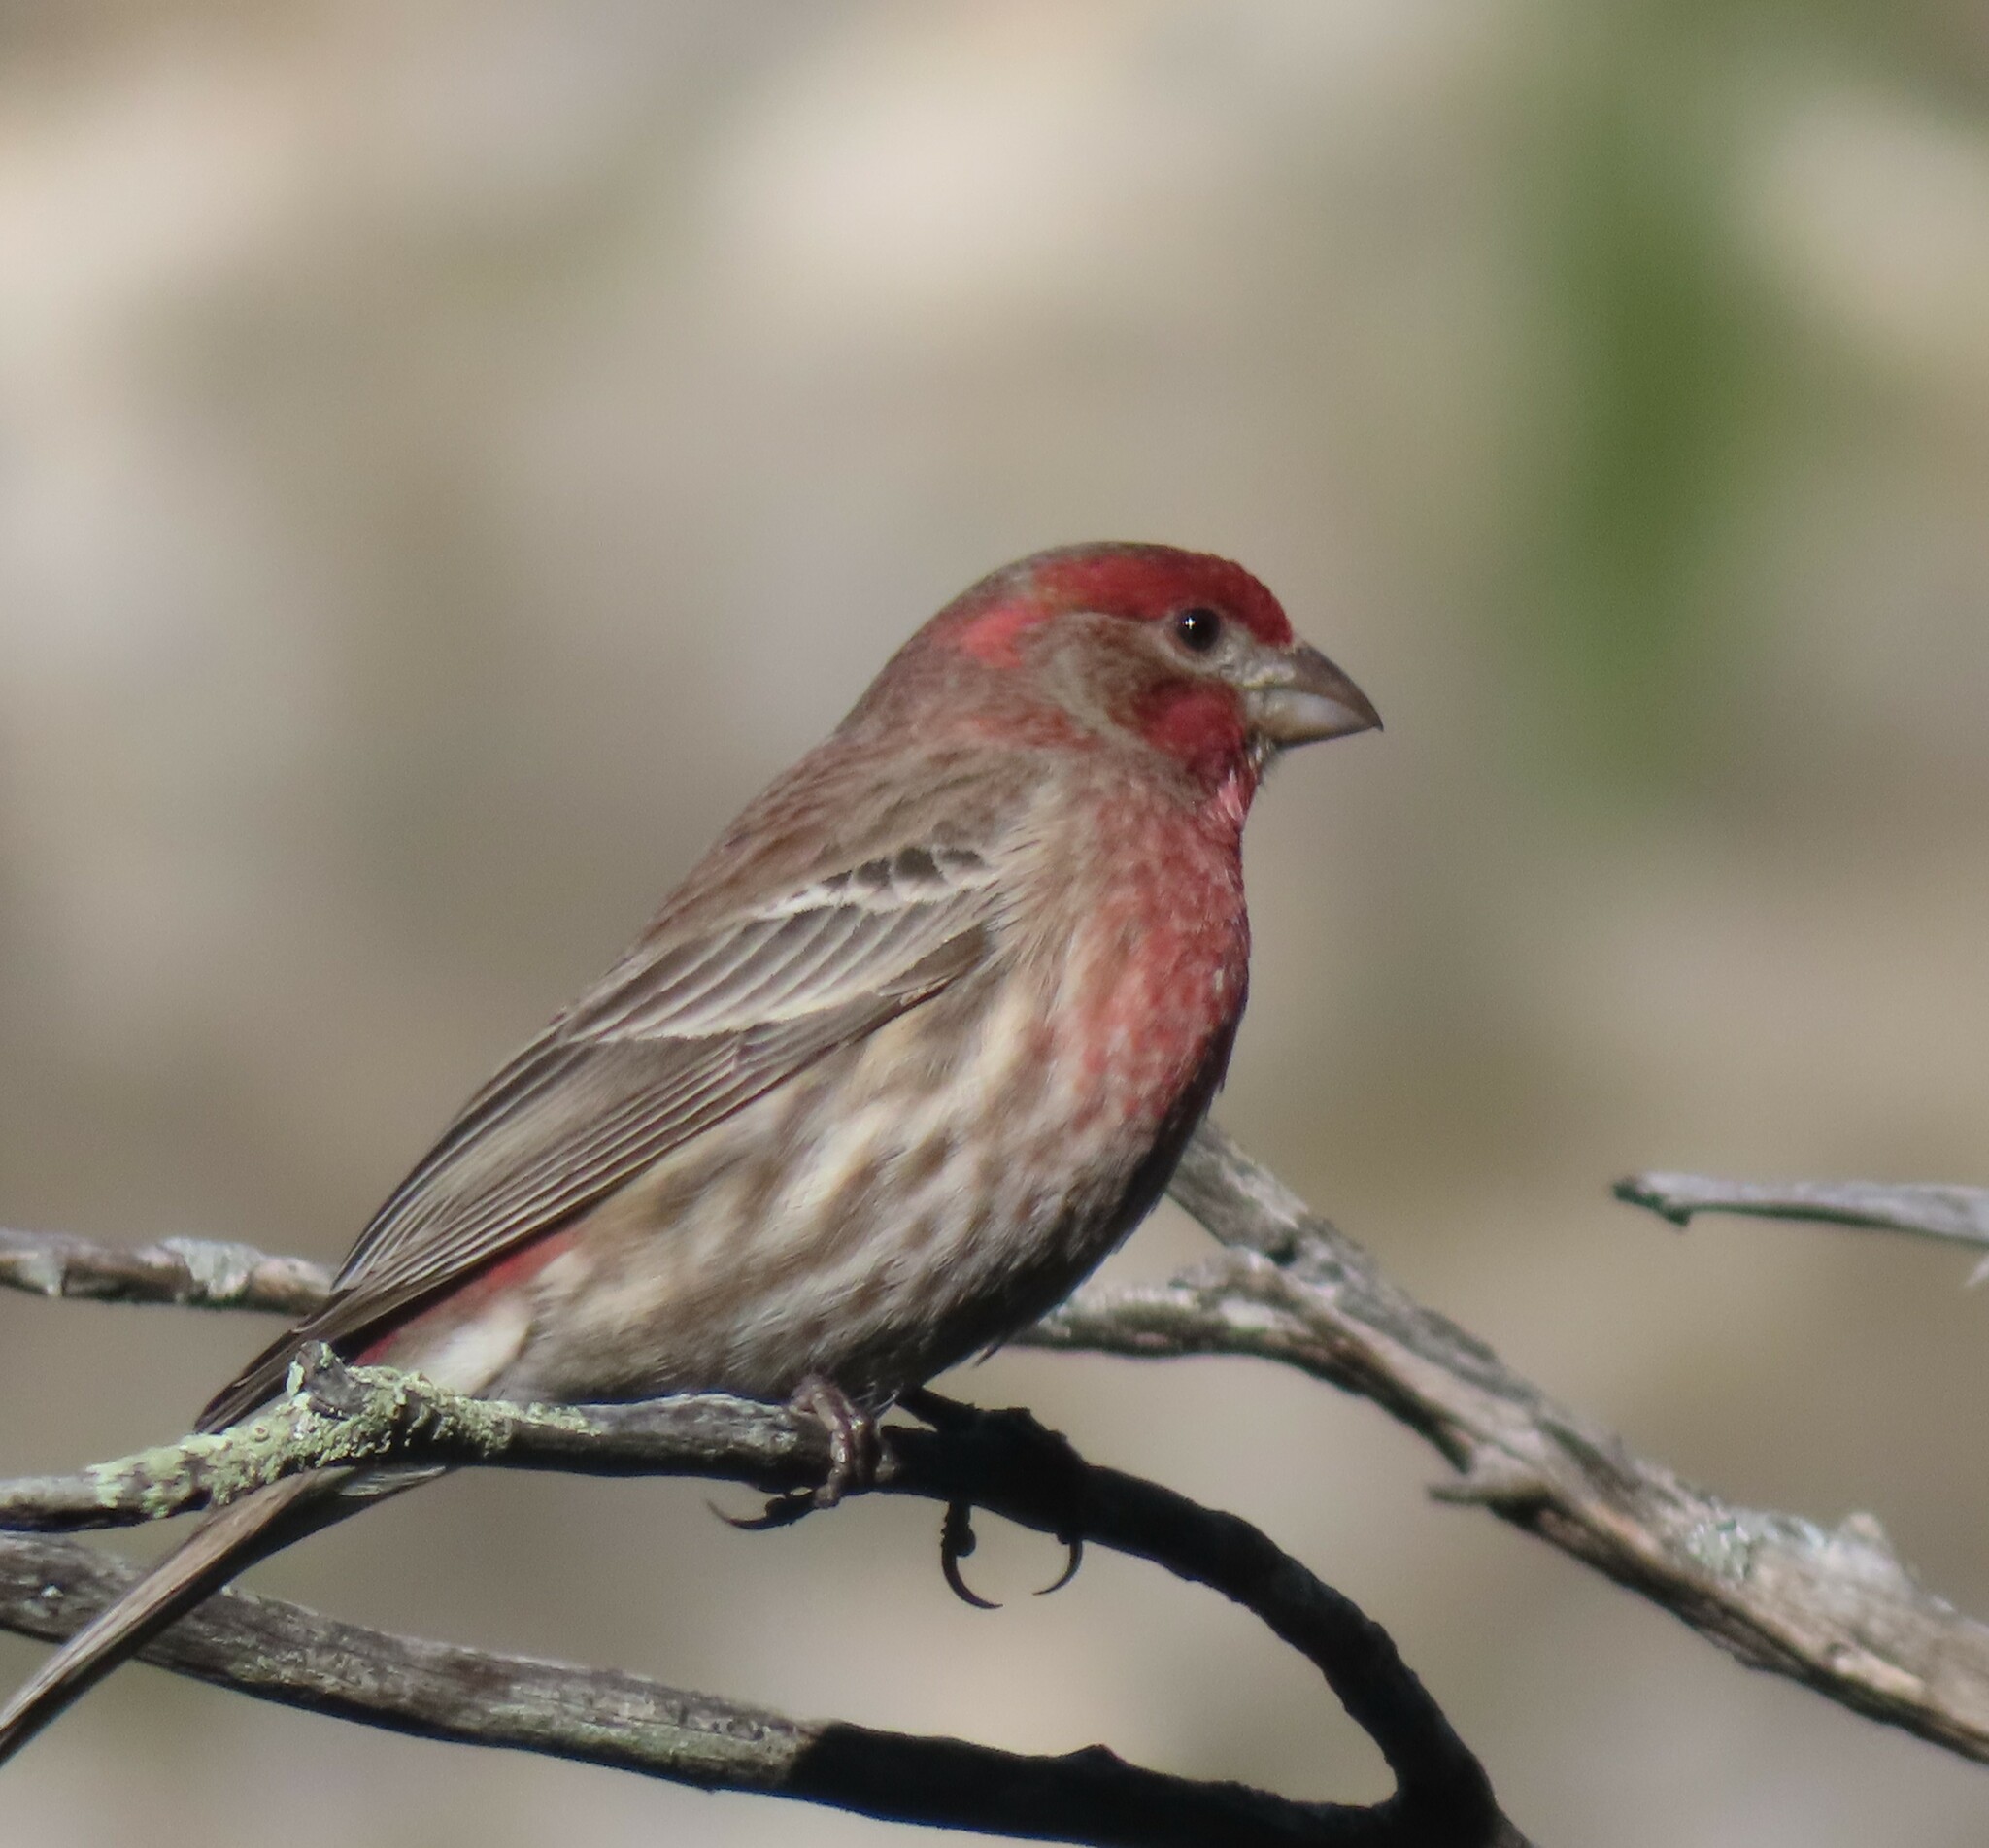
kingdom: Animalia
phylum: Chordata
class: Aves
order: Passeriformes
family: Fringillidae
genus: Haemorhous
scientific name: Haemorhous mexicanus
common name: House finch
